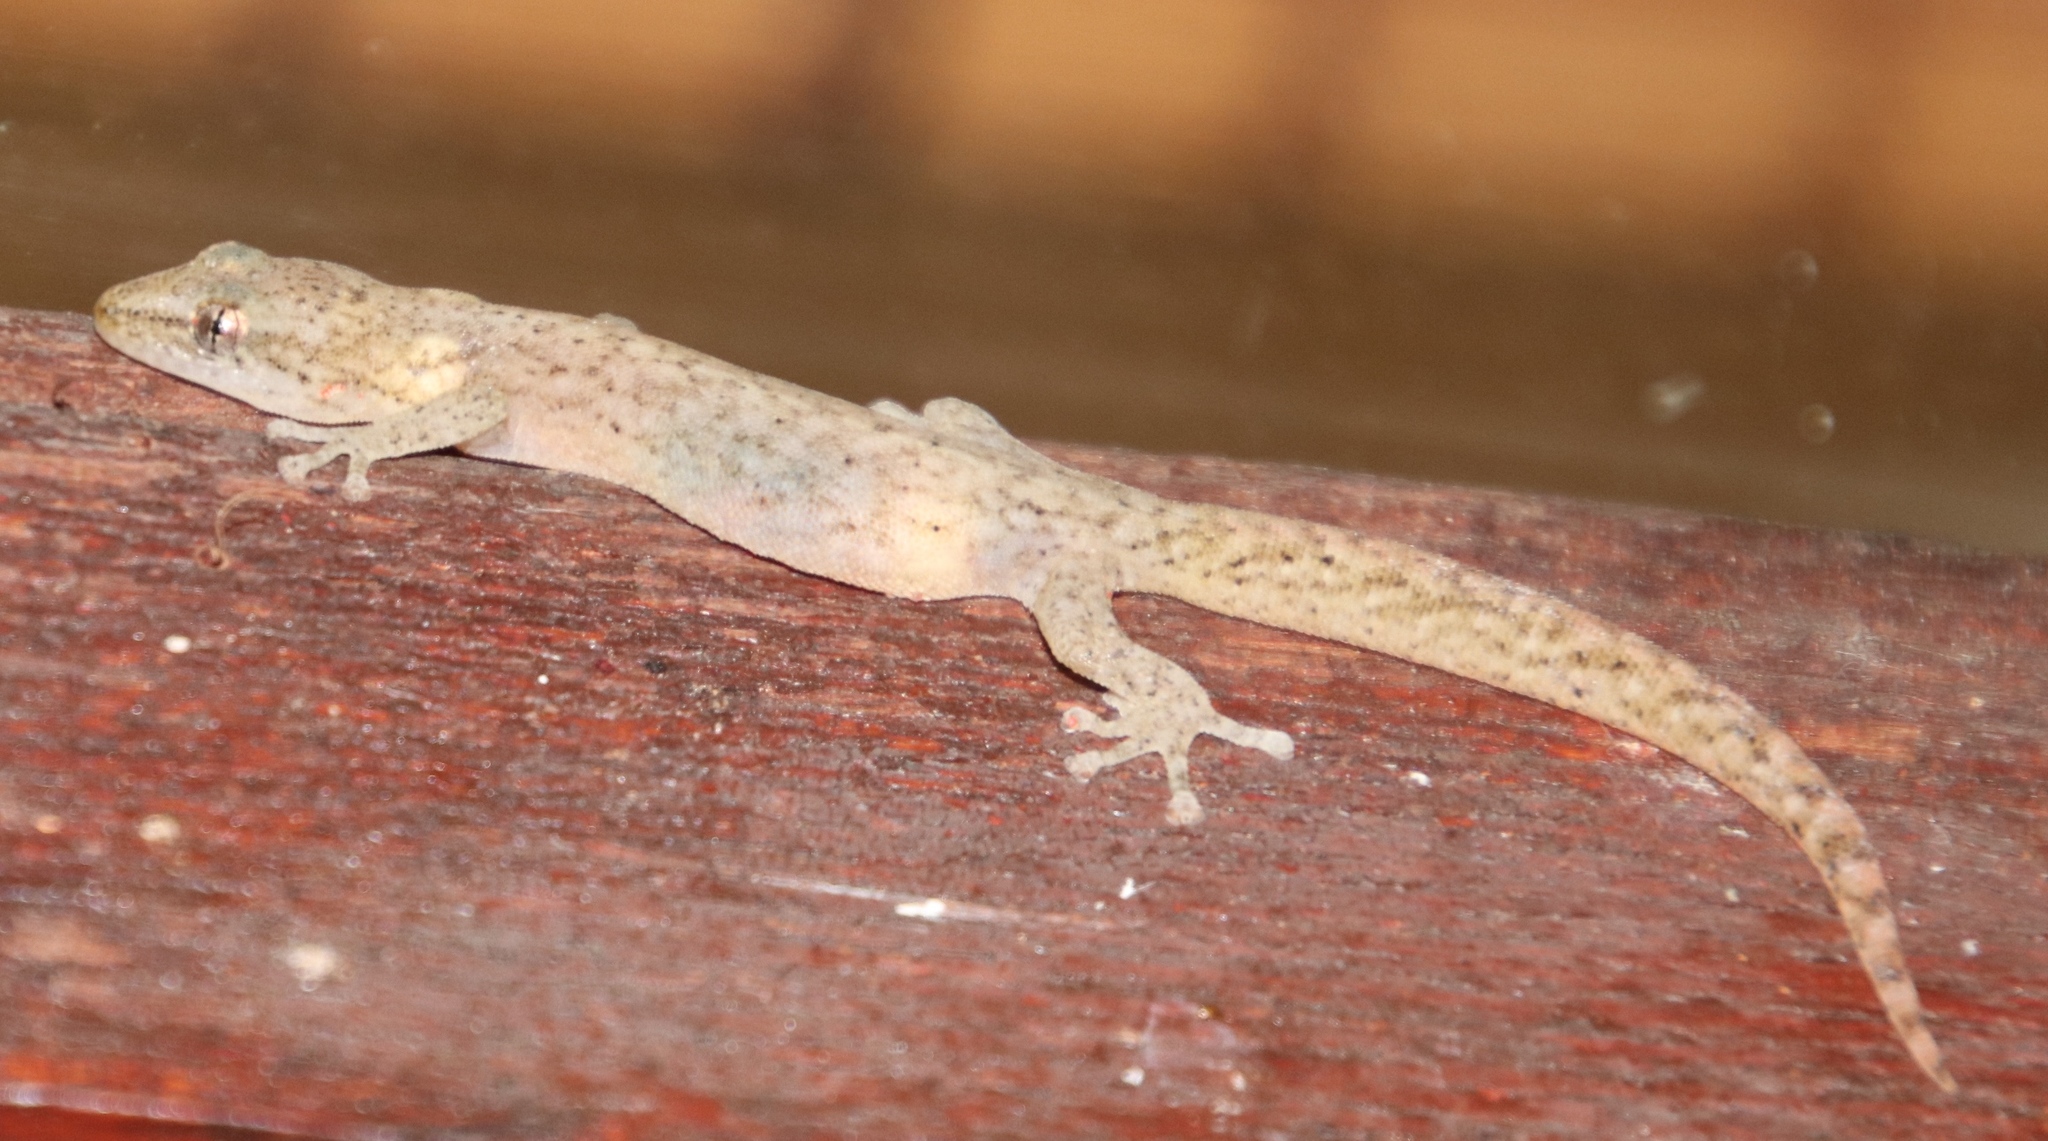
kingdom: Animalia
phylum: Chordata
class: Squamata
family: Gekkonidae
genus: Afrogecko
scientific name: Afrogecko porphyreus
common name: Marbled leaf-toed gecko
